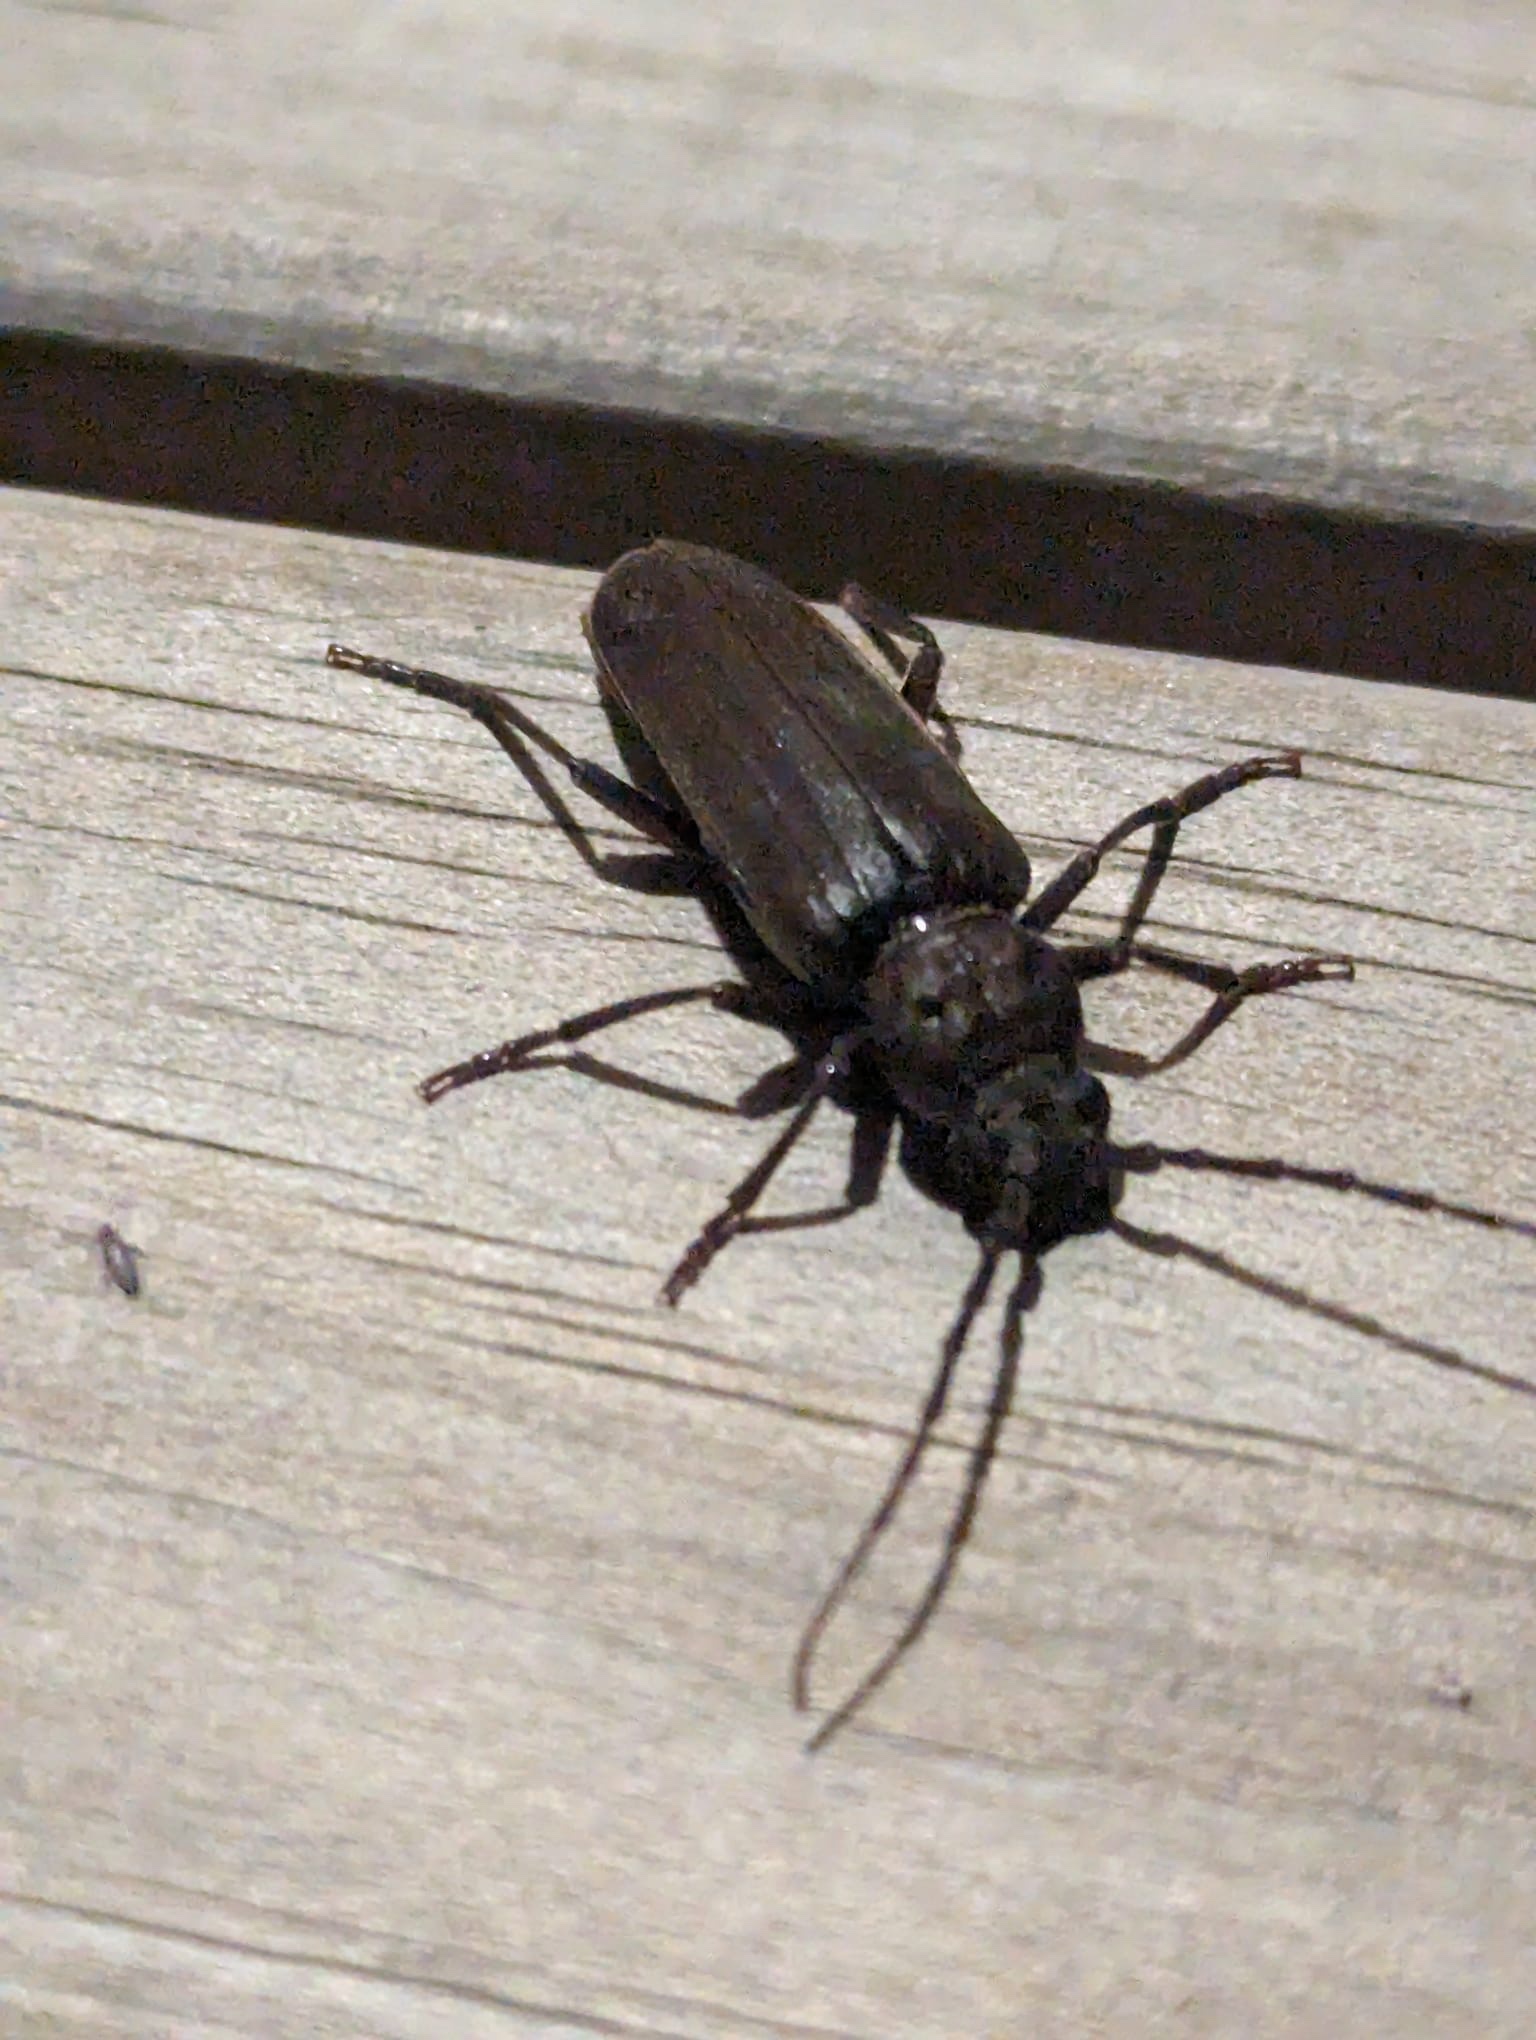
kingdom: Animalia
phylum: Arthropoda
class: Insecta
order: Coleoptera
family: Cerambycidae
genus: Arhopalus
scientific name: Arhopalus ferus
